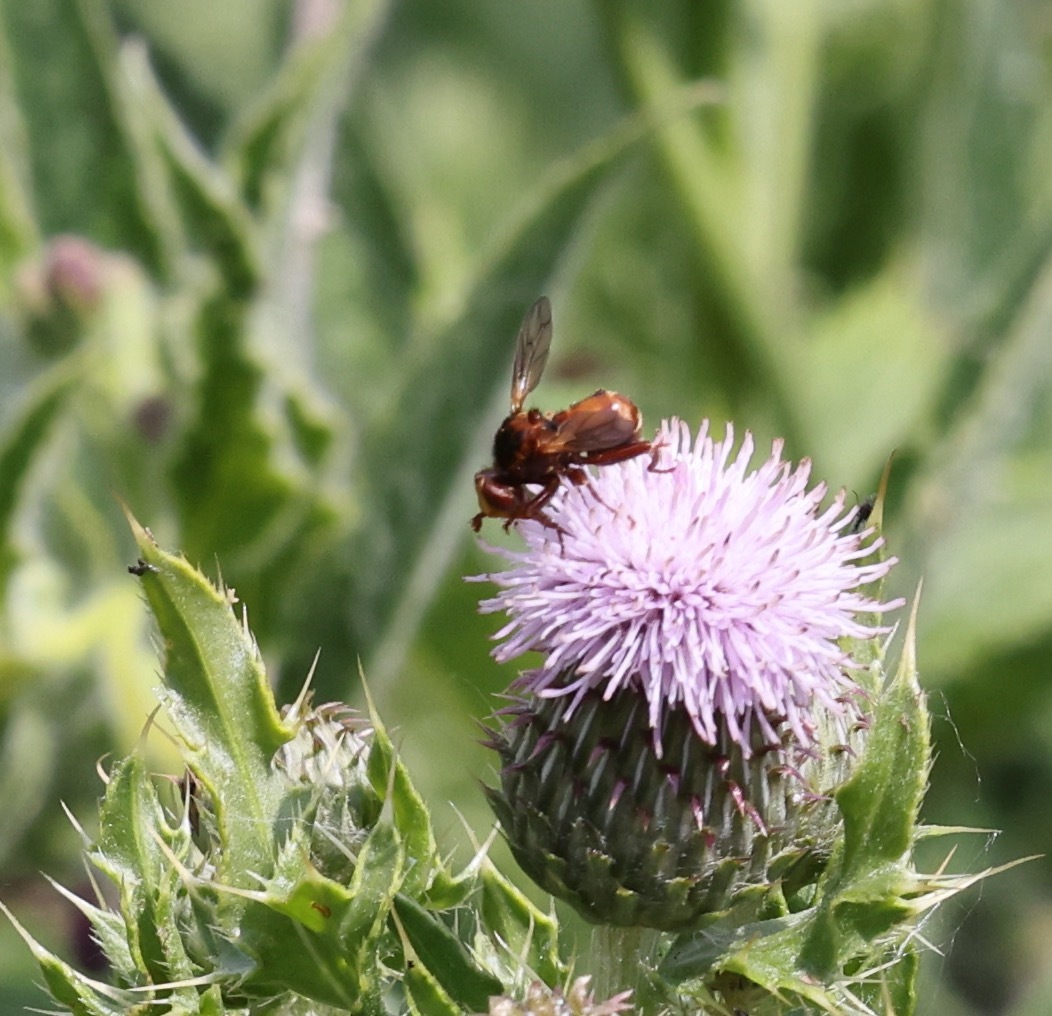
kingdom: Animalia
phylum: Arthropoda
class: Insecta
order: Diptera
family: Conopidae
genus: Sicus
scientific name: Sicus ferrugineus
